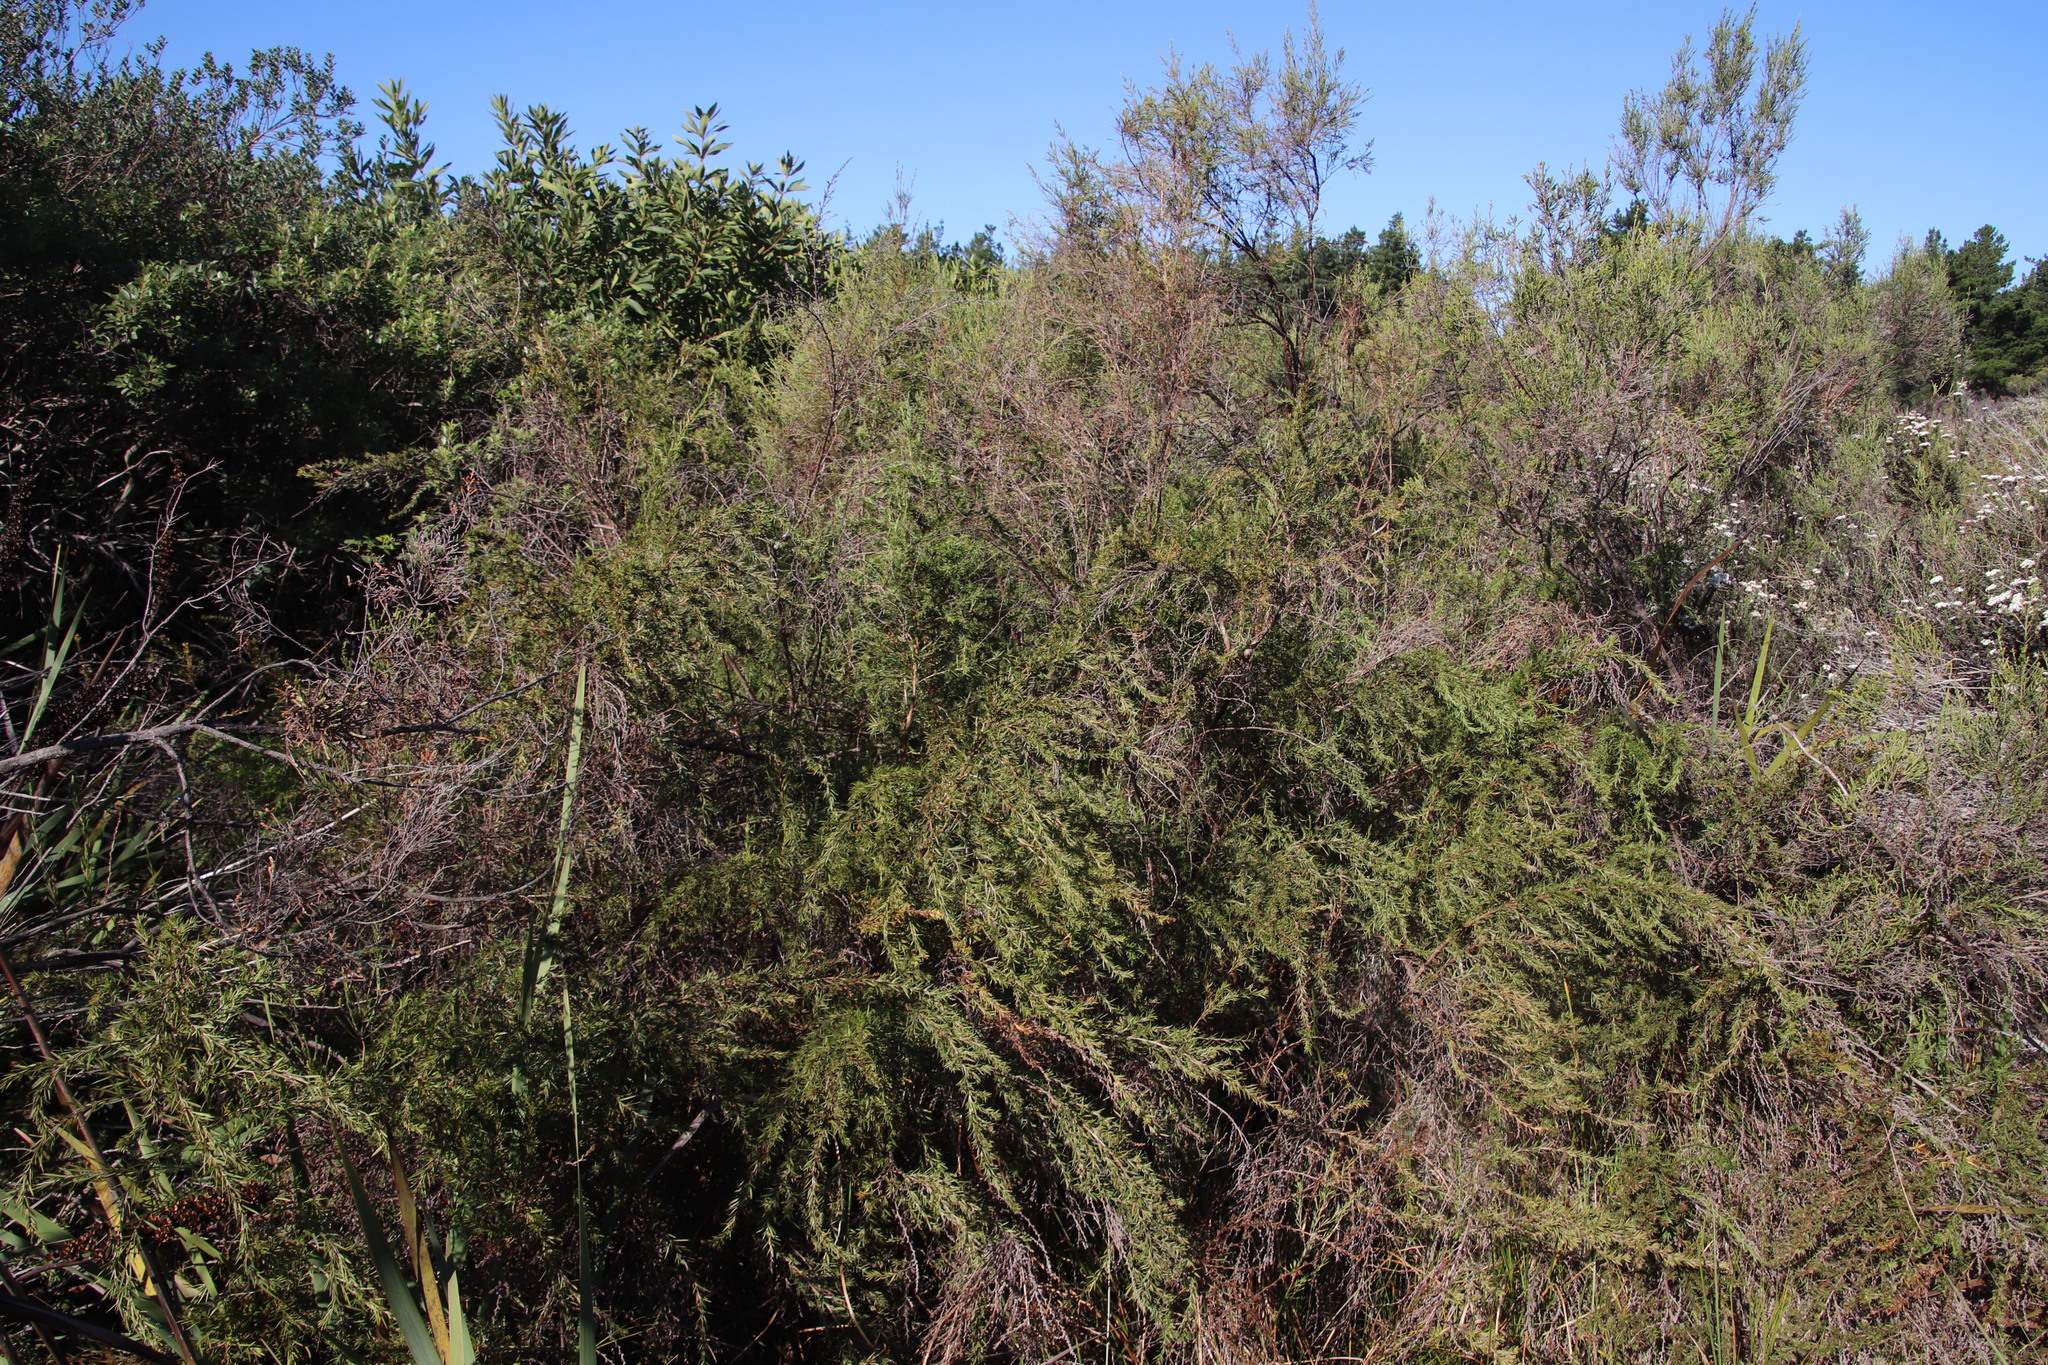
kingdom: Plantae
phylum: Tracheophyta
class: Magnoliopsida
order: Rosales
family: Rosaceae
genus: Cliffortia
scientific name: Cliffortia strobilifera
